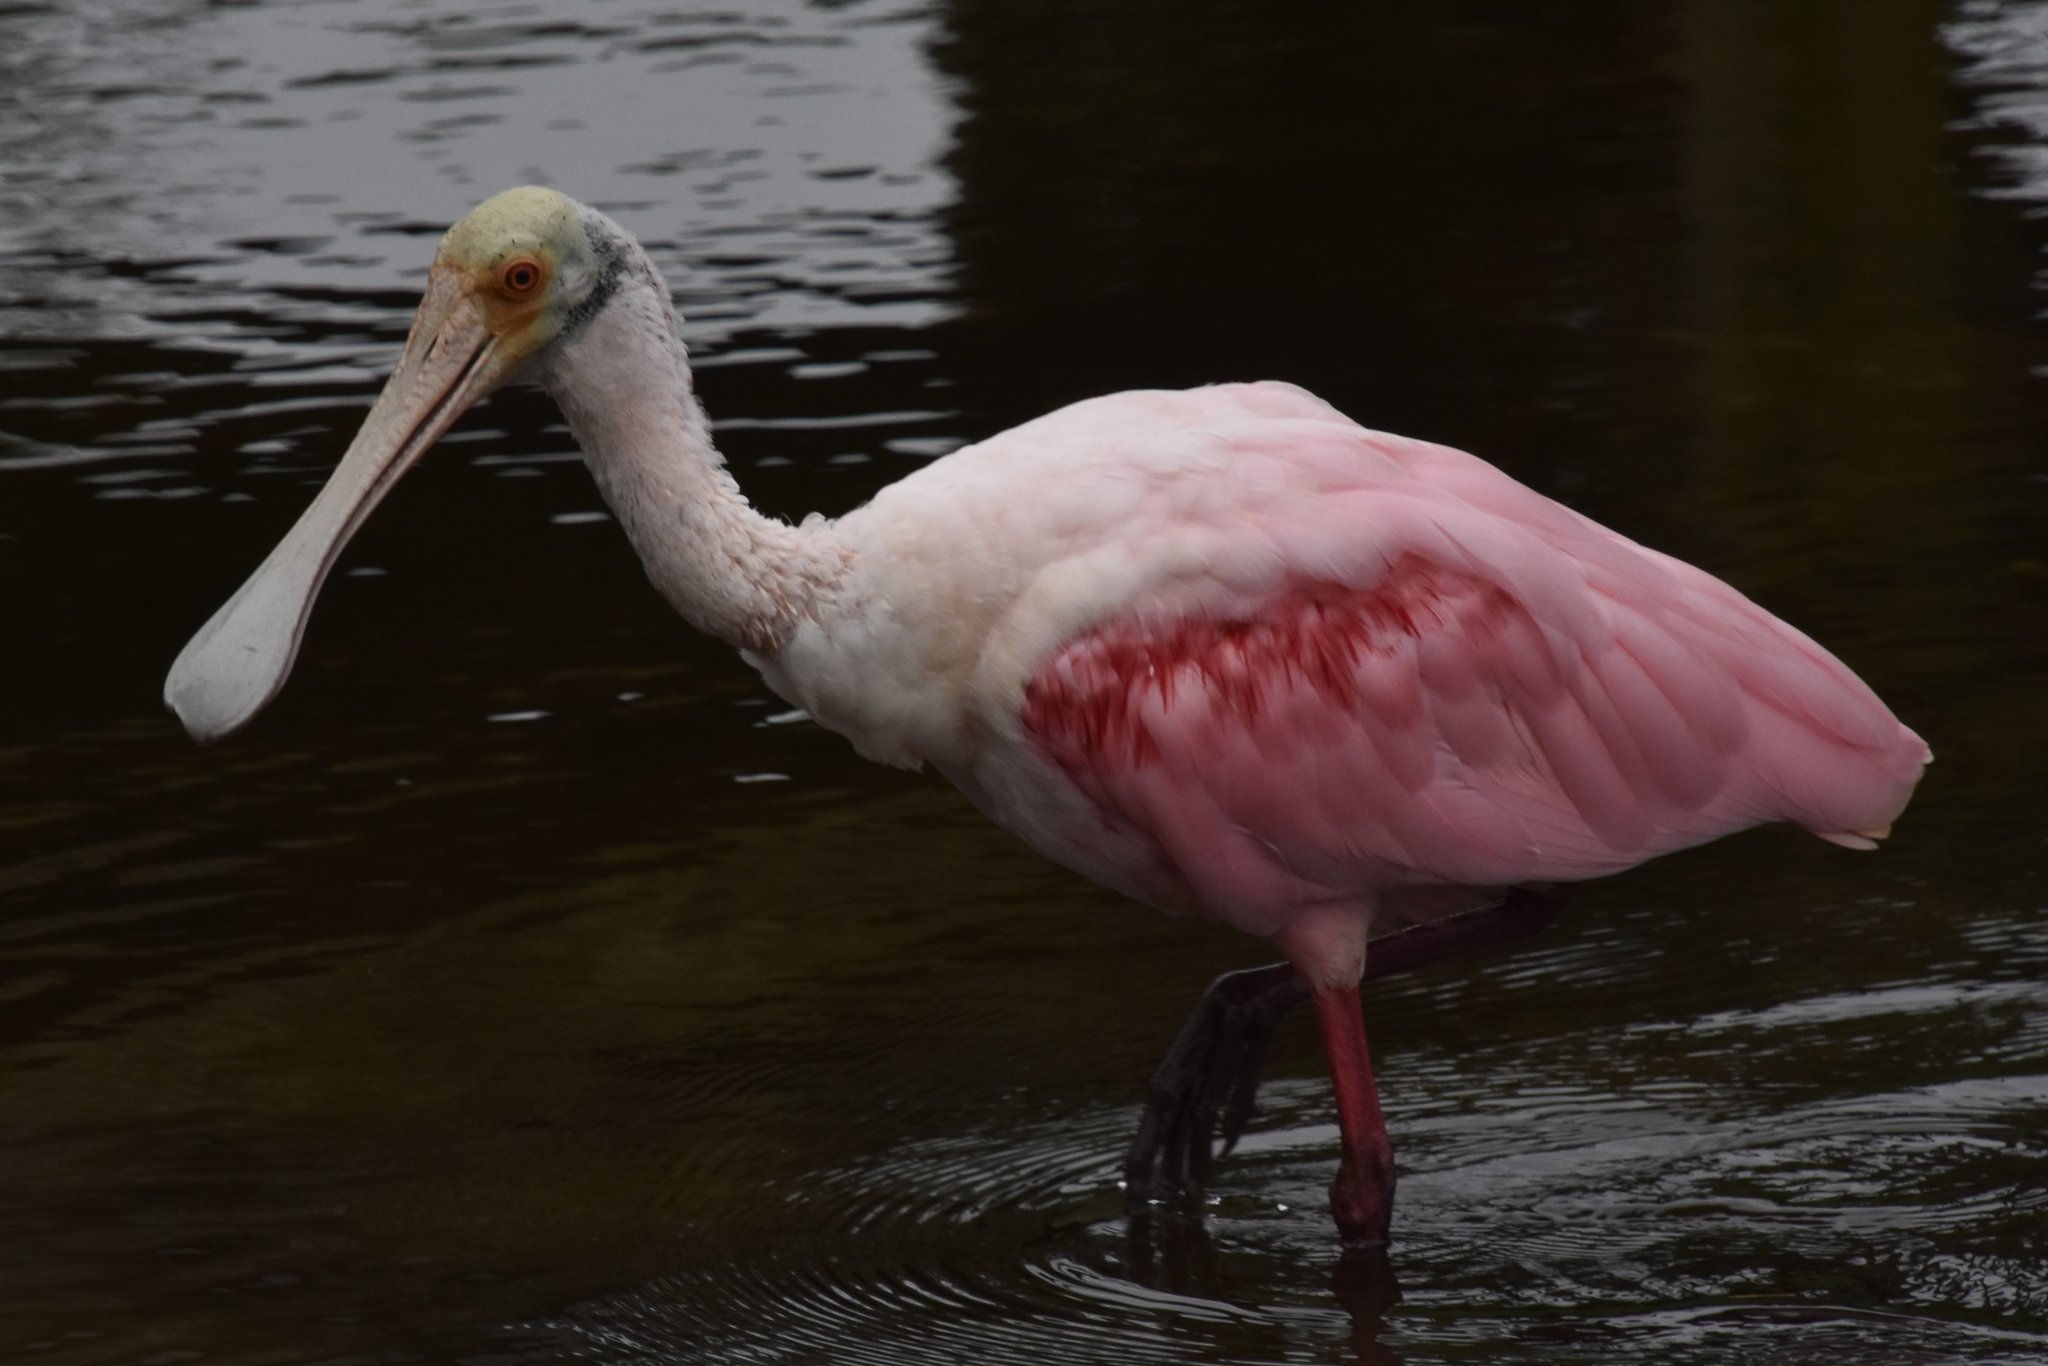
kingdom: Animalia
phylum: Chordata
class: Aves
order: Pelecaniformes
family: Threskiornithidae
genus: Platalea
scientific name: Platalea ajaja
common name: Roseate spoonbill
